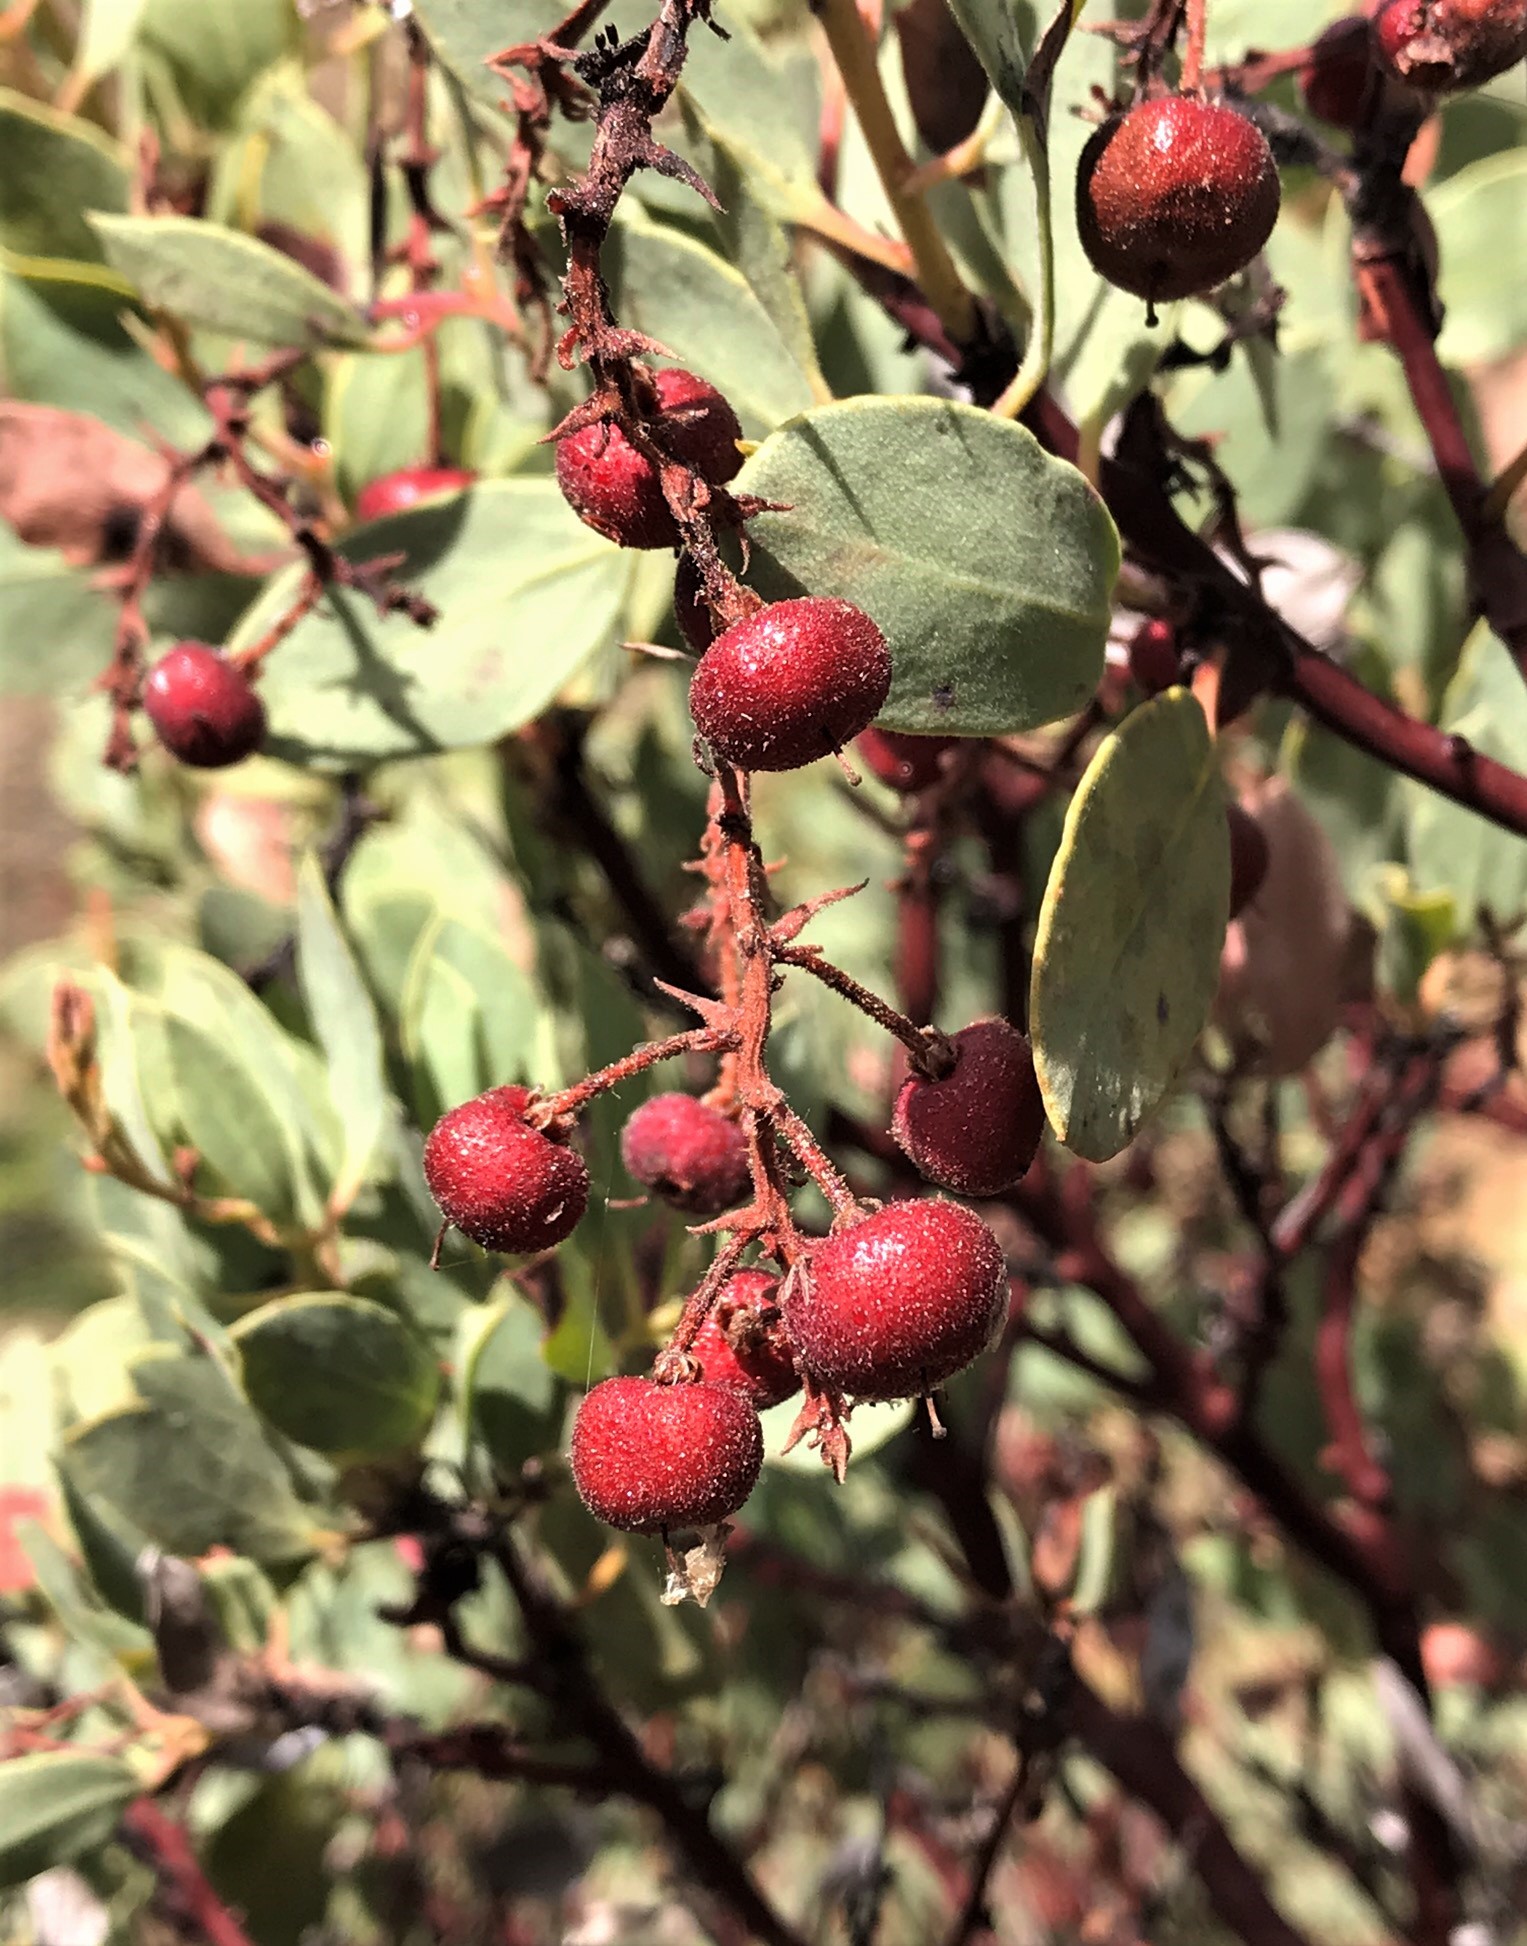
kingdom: Plantae
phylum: Tracheophyta
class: Magnoliopsida
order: Ericales
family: Ericaceae
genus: Arctostaphylos
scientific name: Arctostaphylos viscida
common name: White-leaf manzanita
